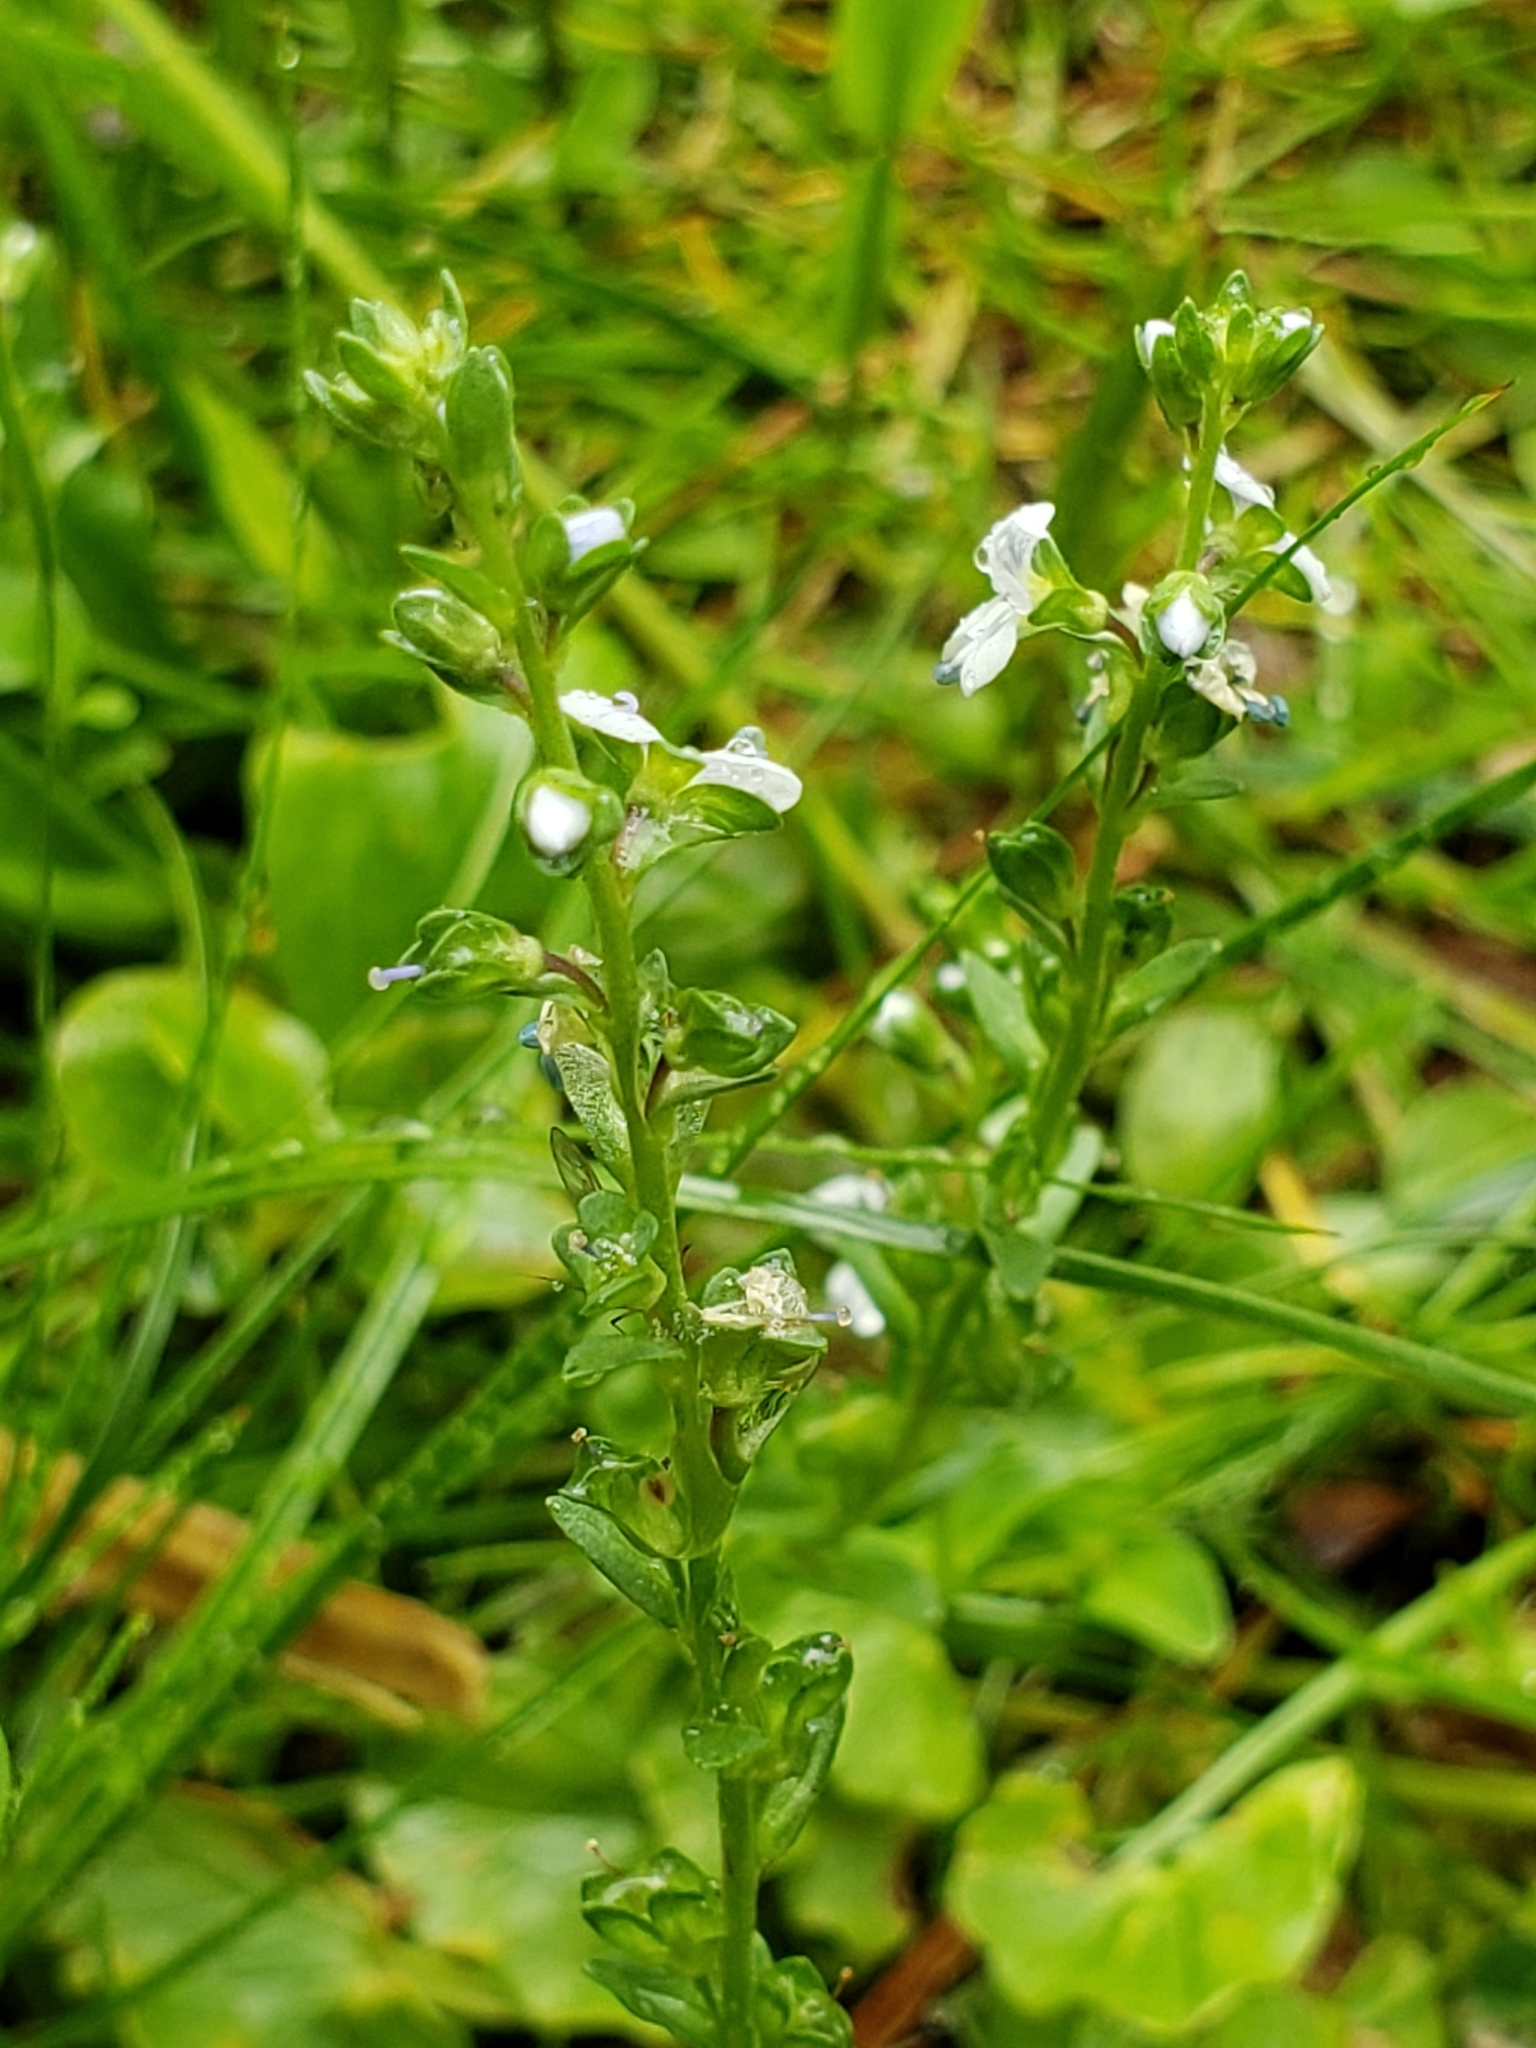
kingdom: Plantae
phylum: Tracheophyta
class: Magnoliopsida
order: Lamiales
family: Plantaginaceae
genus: Veronica
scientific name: Veronica serpyllifolia
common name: Thyme-leaved speedwell
